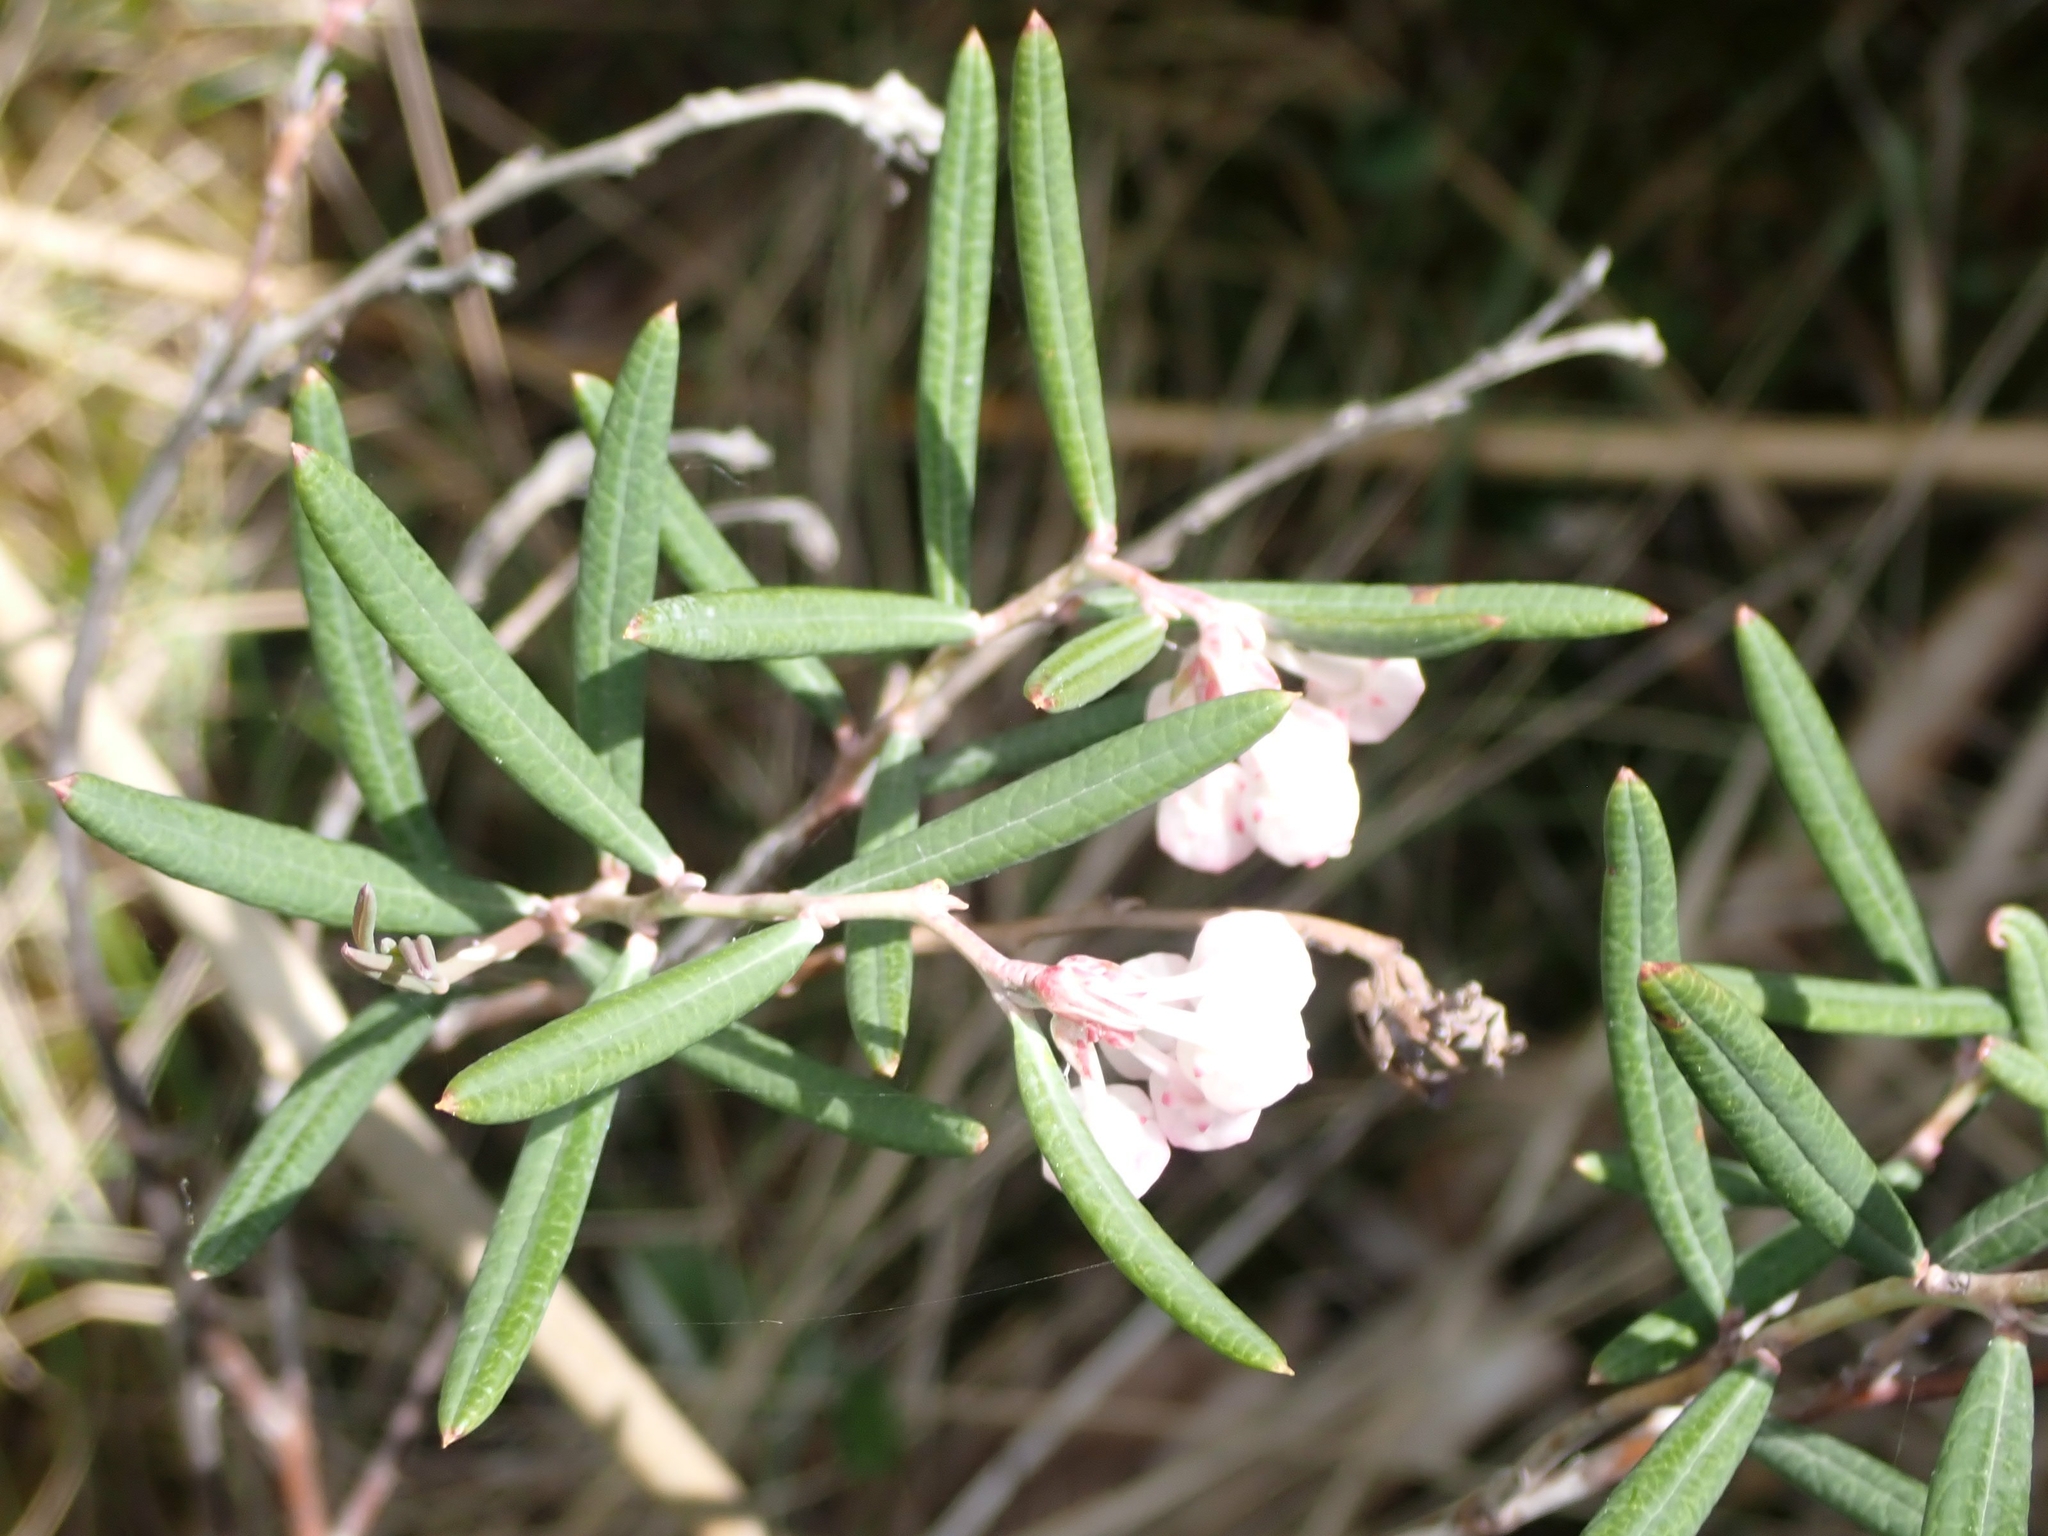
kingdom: Plantae
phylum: Tracheophyta
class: Magnoliopsida
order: Ericales
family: Ericaceae
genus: Andromeda
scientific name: Andromeda polifolia
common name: Bog-rosemary
